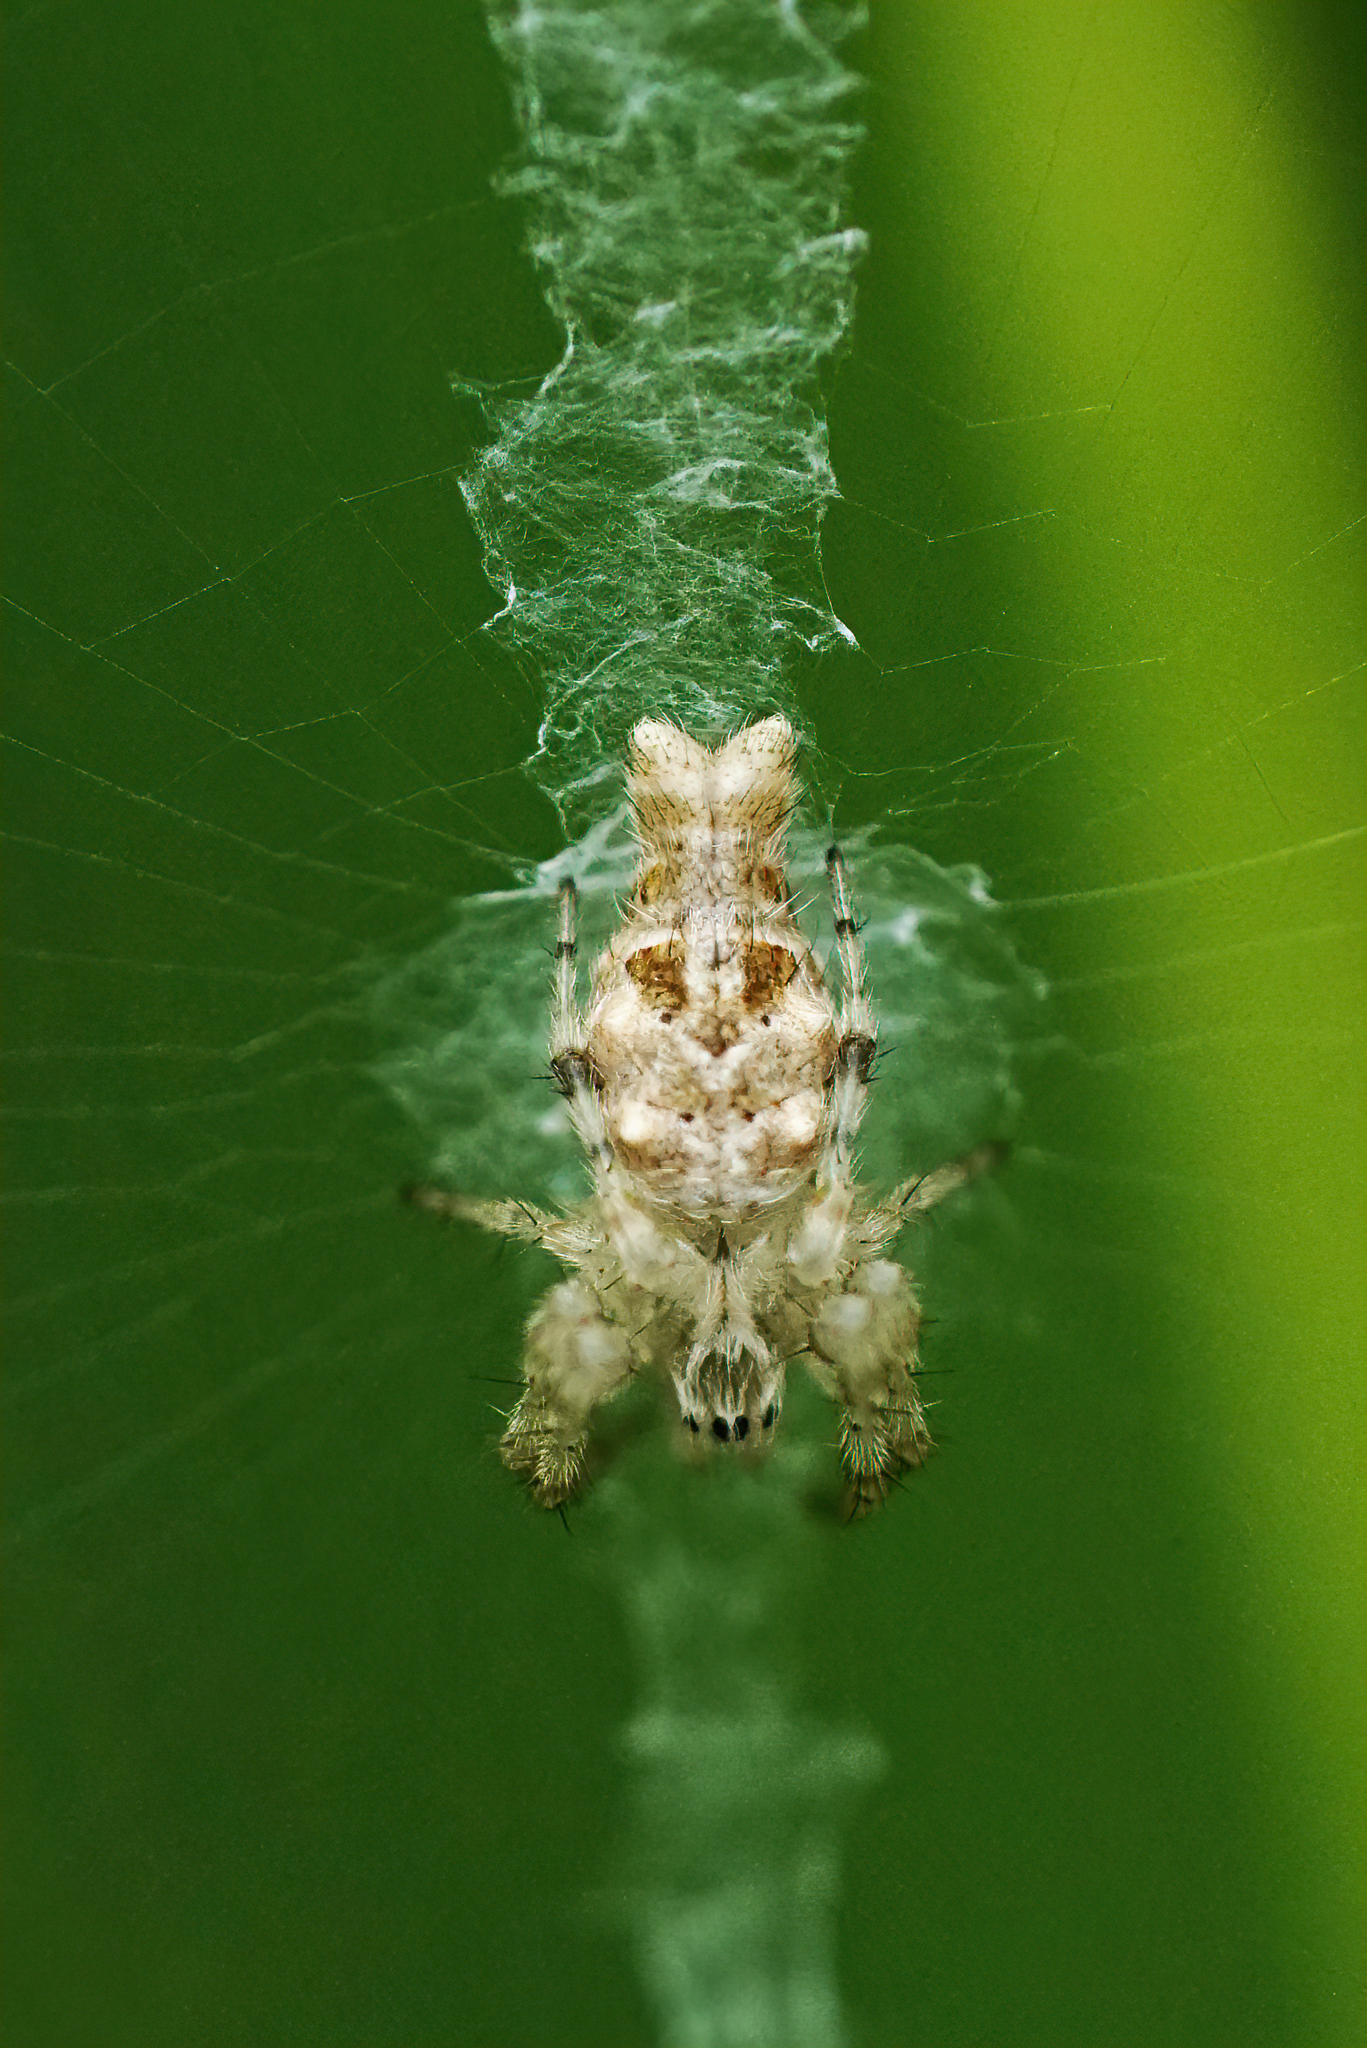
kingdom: Animalia
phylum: Arthropoda
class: Arachnida
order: Araneae
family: Araneidae
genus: Allocyclosa
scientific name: Allocyclosa bifurca
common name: Orb weavers
